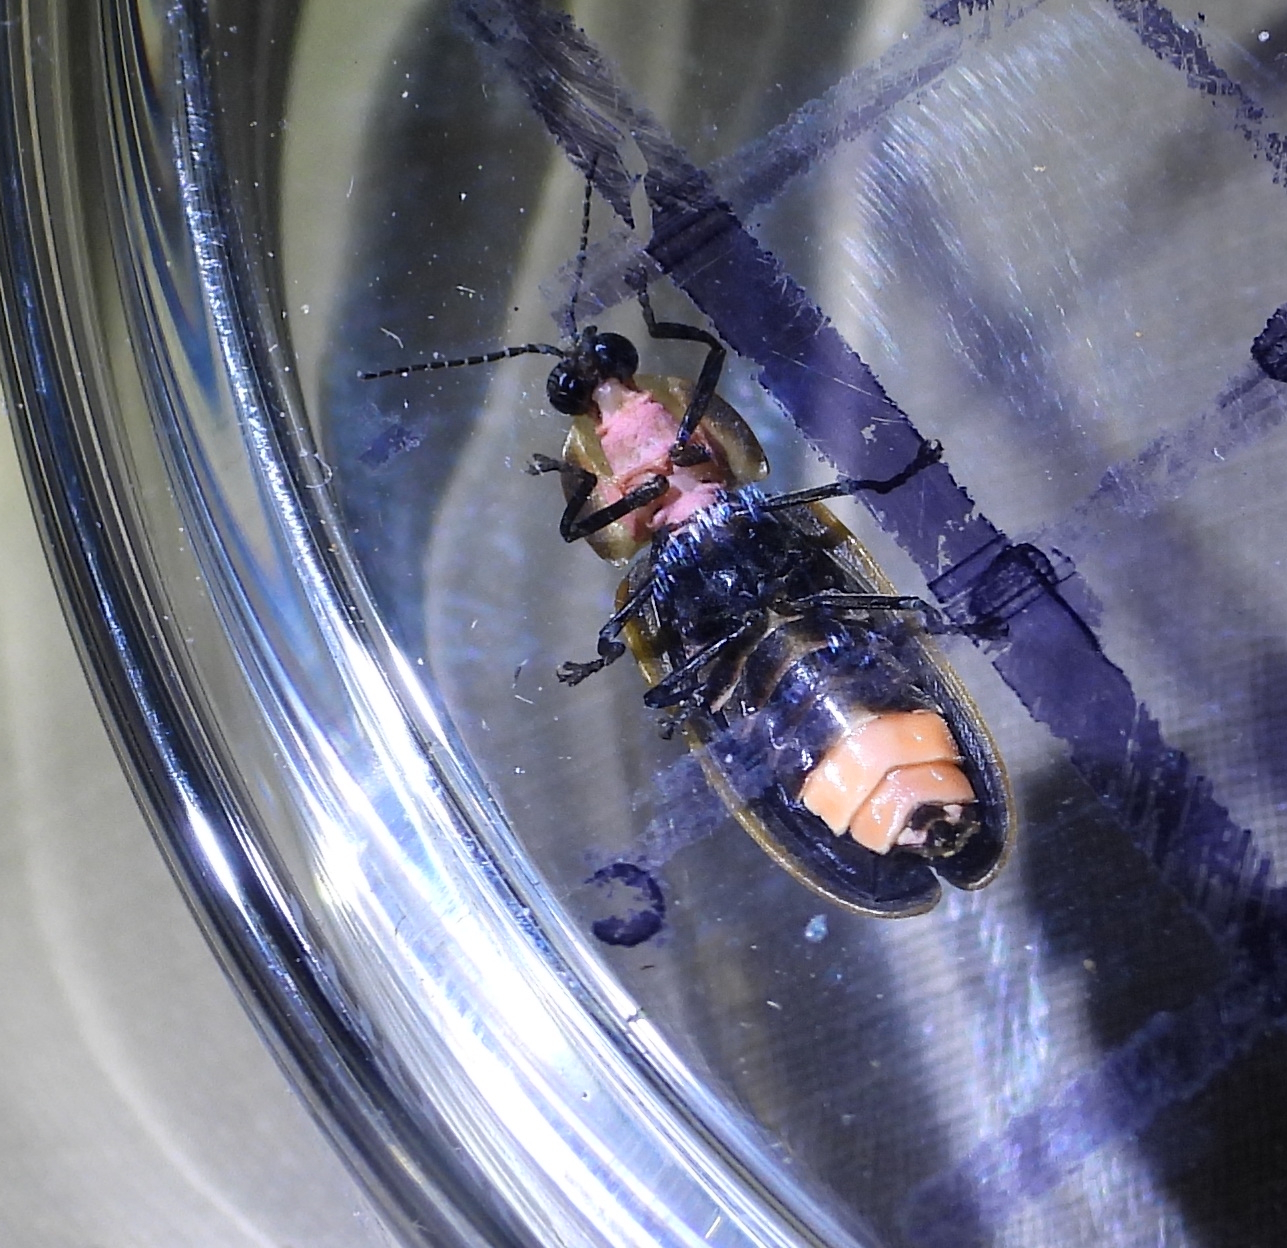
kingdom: Animalia
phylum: Arthropoda
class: Insecta
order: Coleoptera
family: Lampyridae
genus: Pyractomena
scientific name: Pyractomena borealis
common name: Northern firefly
